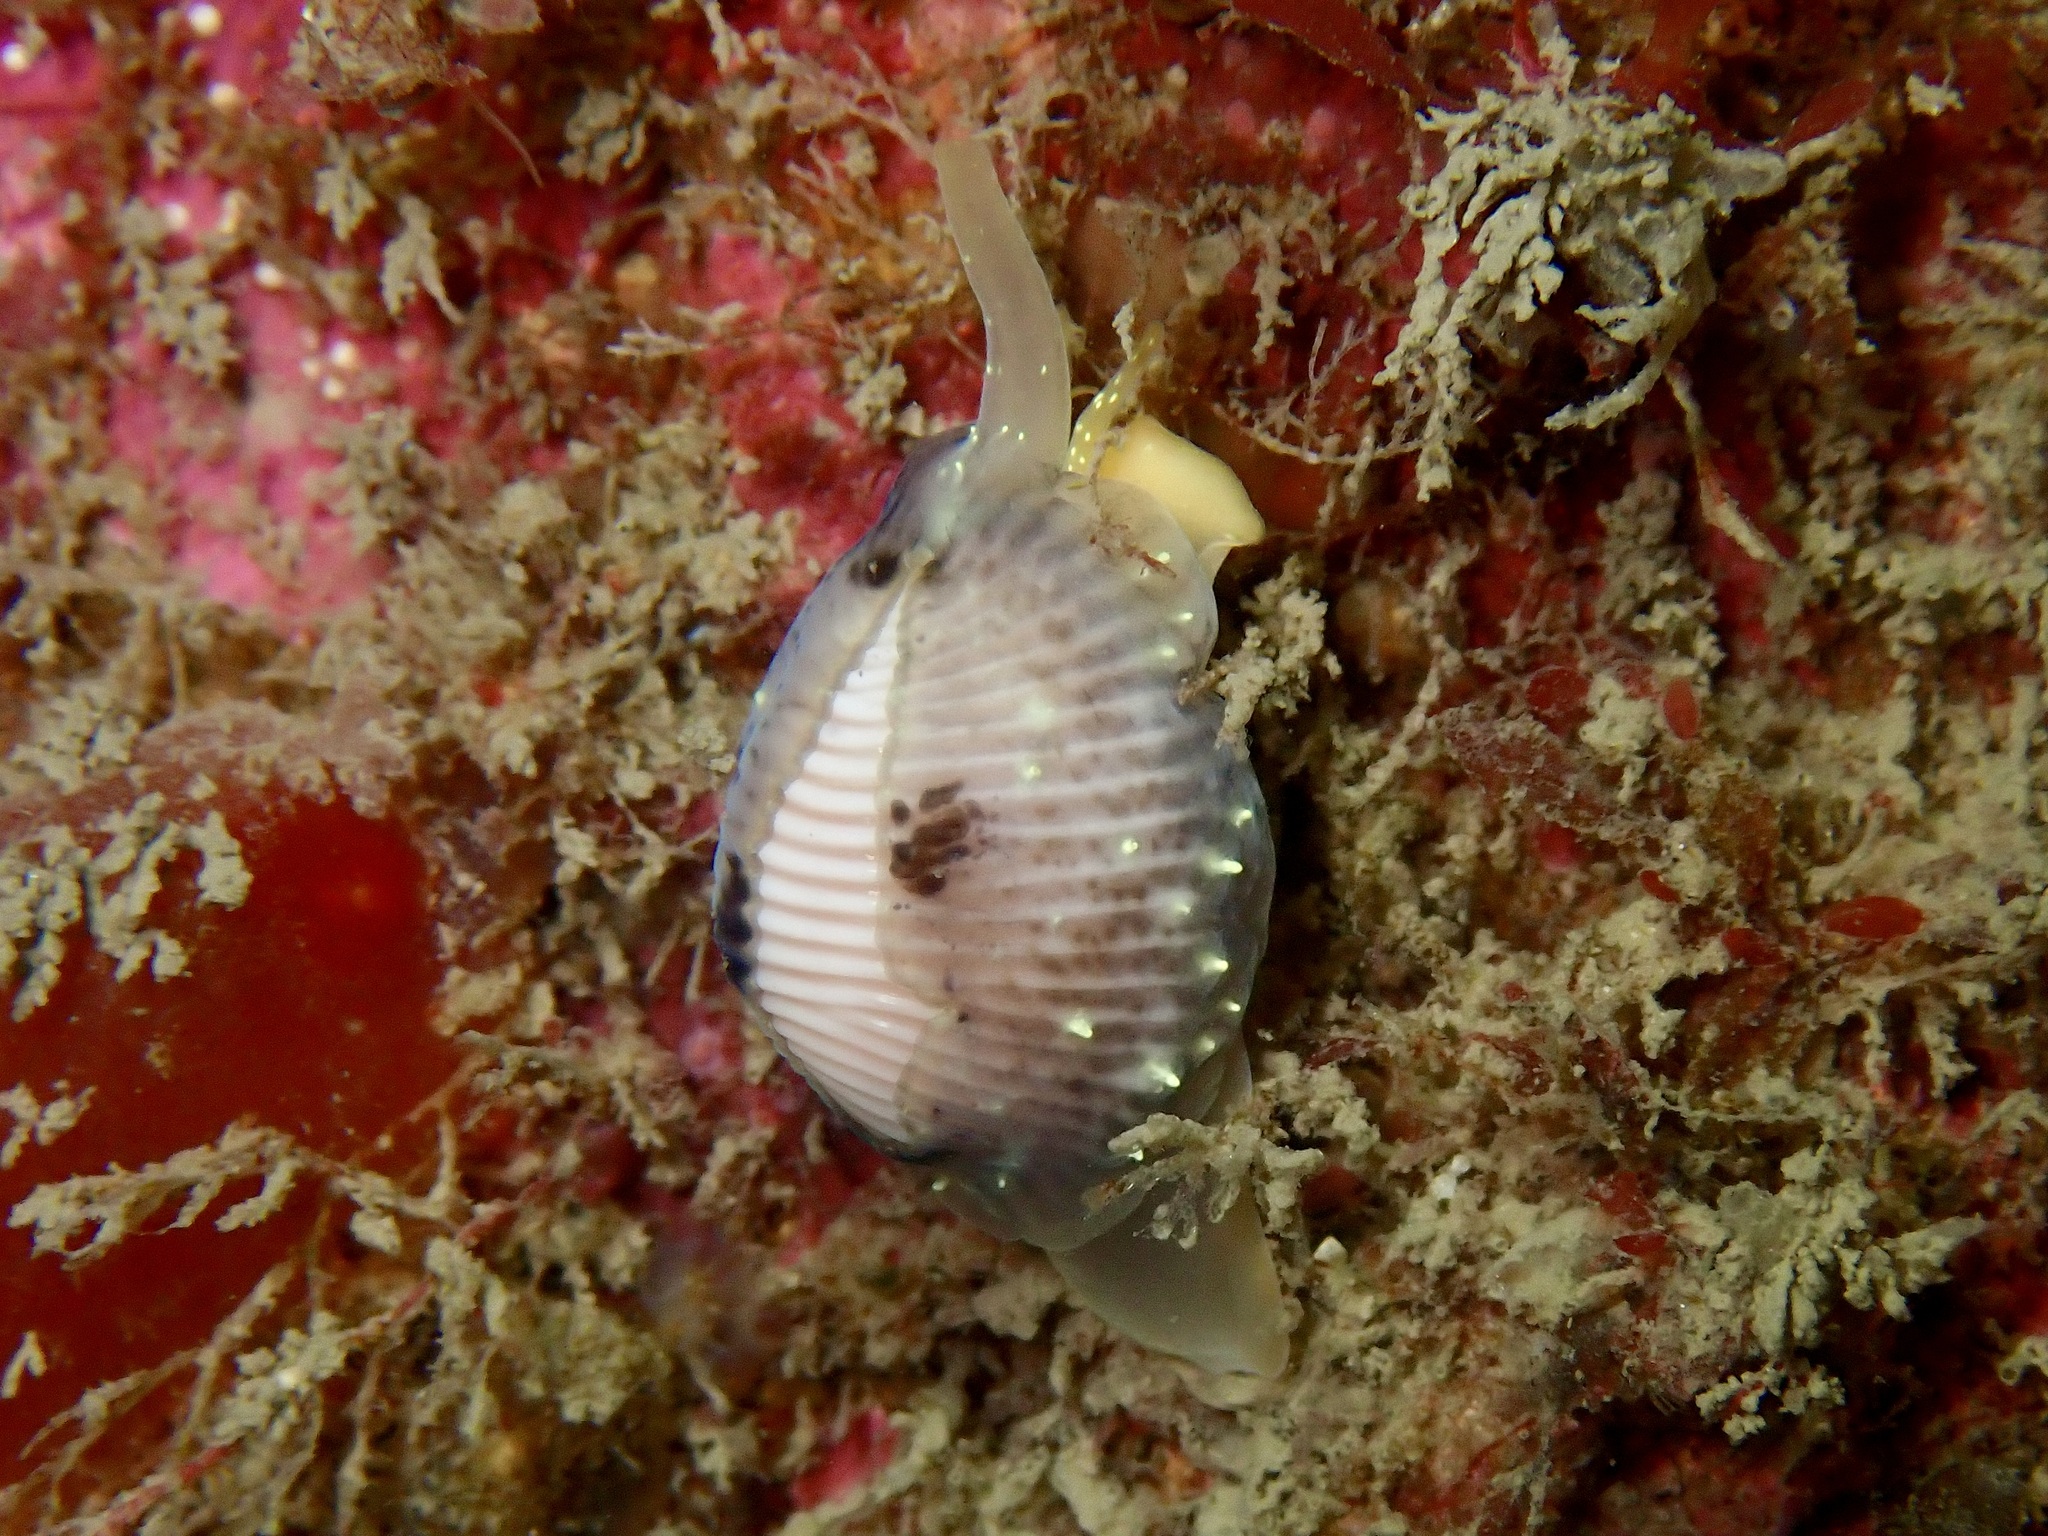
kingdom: Animalia
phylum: Mollusca
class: Gastropoda
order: Littorinimorpha
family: Triviidae
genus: Trivia
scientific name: Trivia arctica
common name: Arctic cowrie
